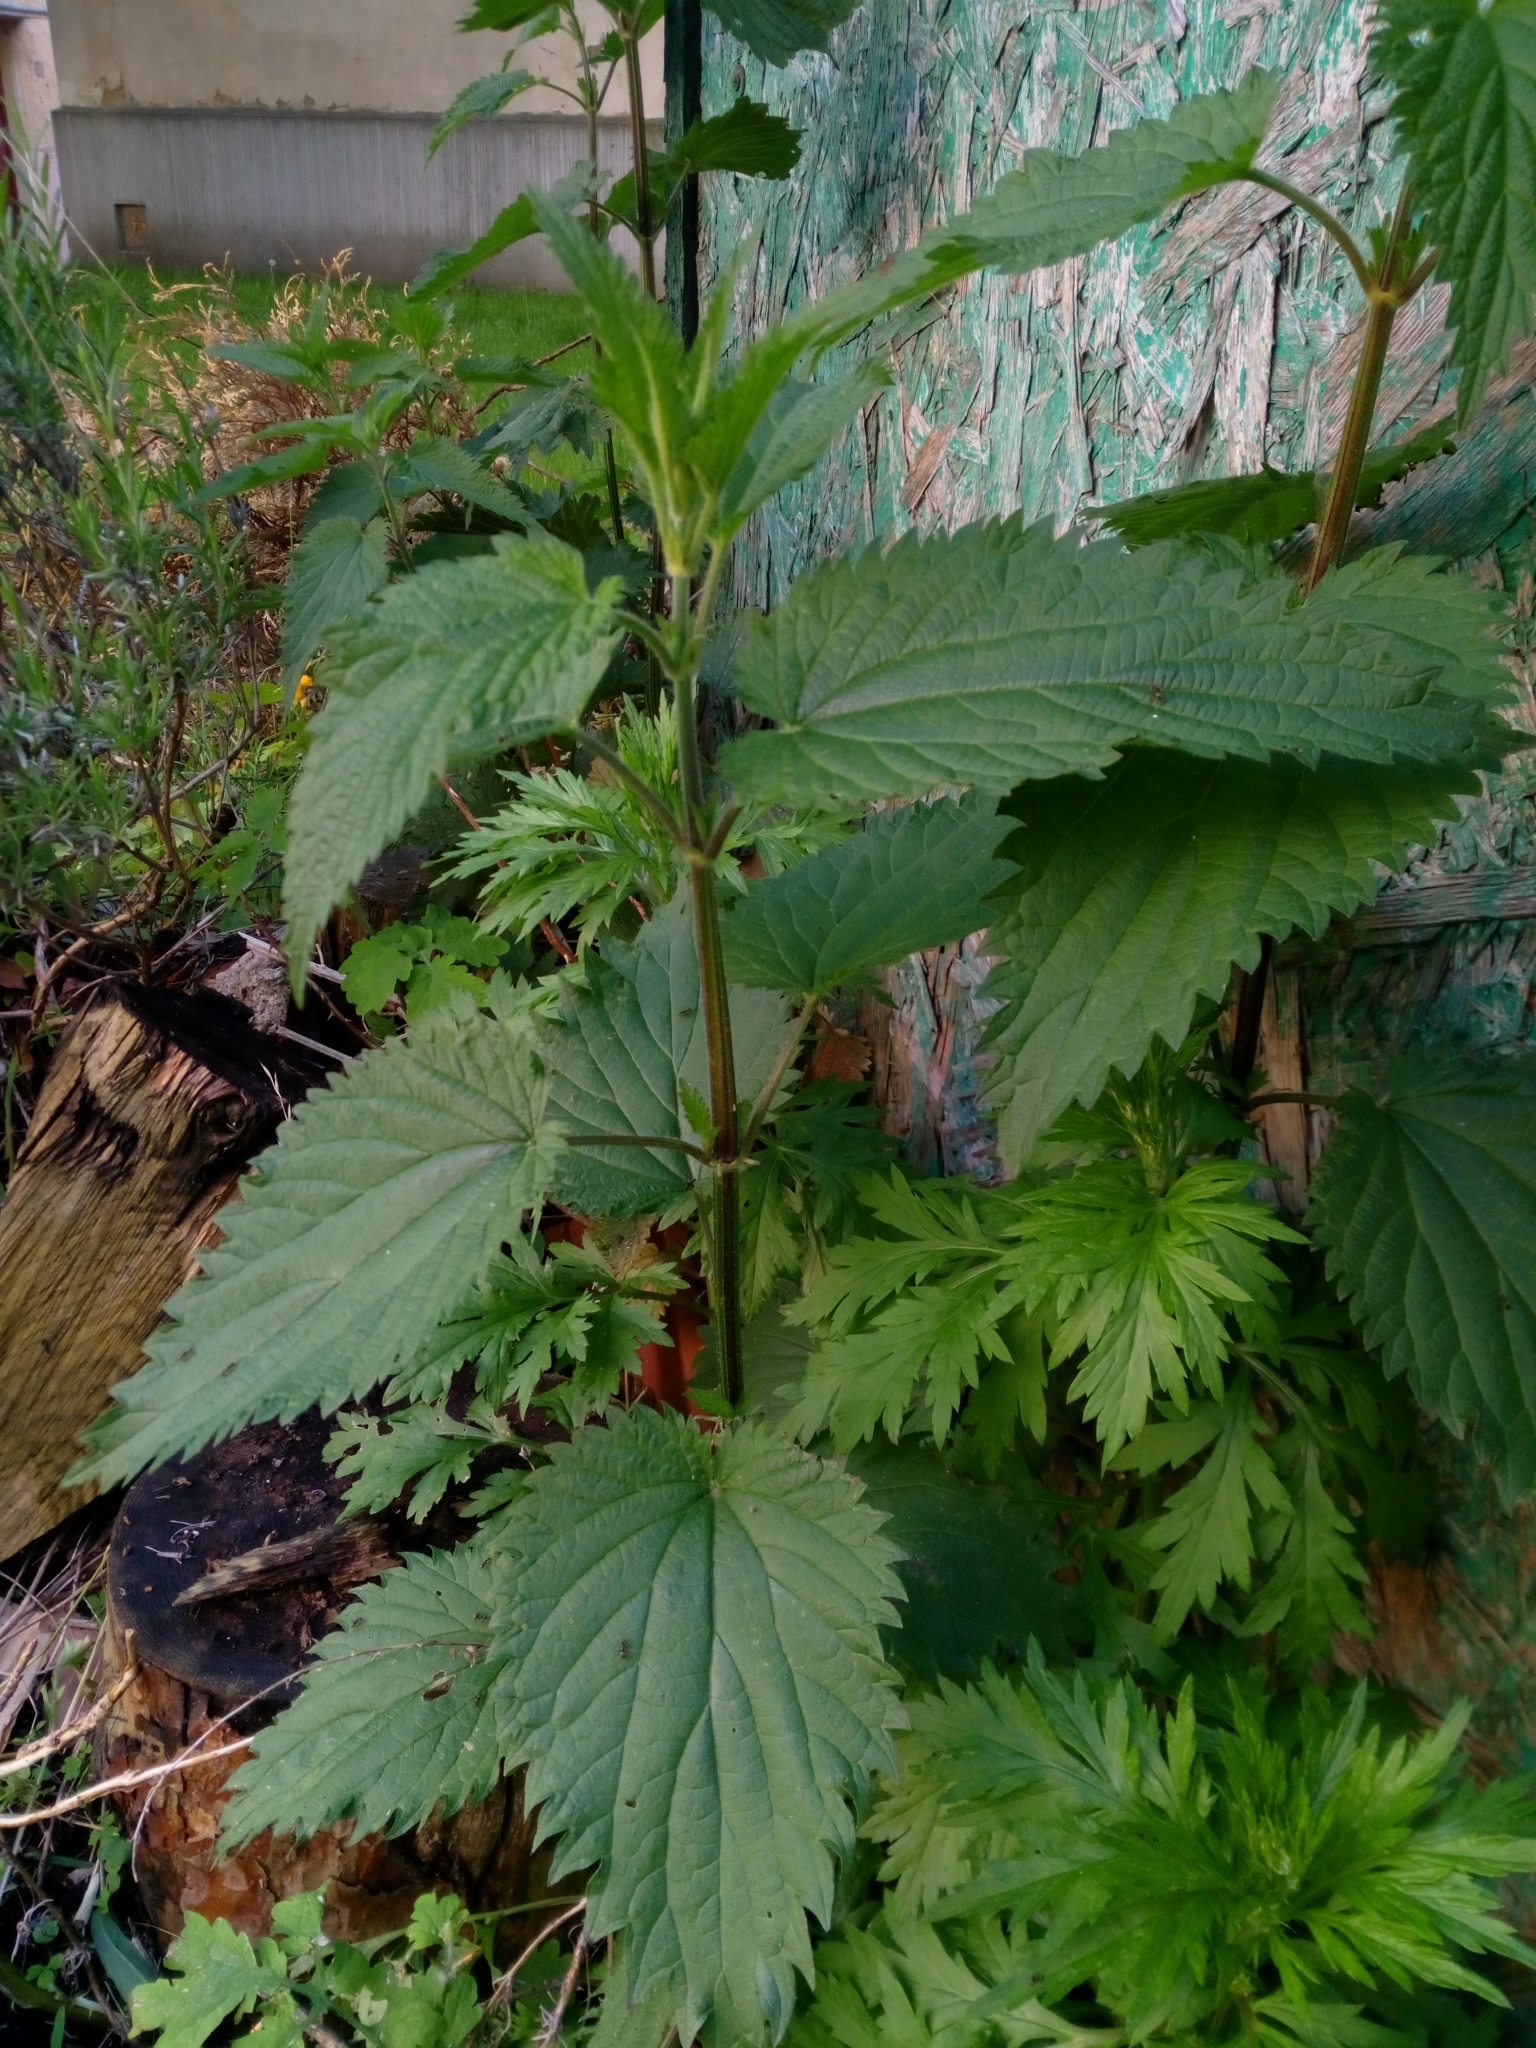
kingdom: Plantae
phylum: Tracheophyta
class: Magnoliopsida
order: Rosales
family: Urticaceae
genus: Urtica
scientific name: Urtica dioica
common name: Common nettle
